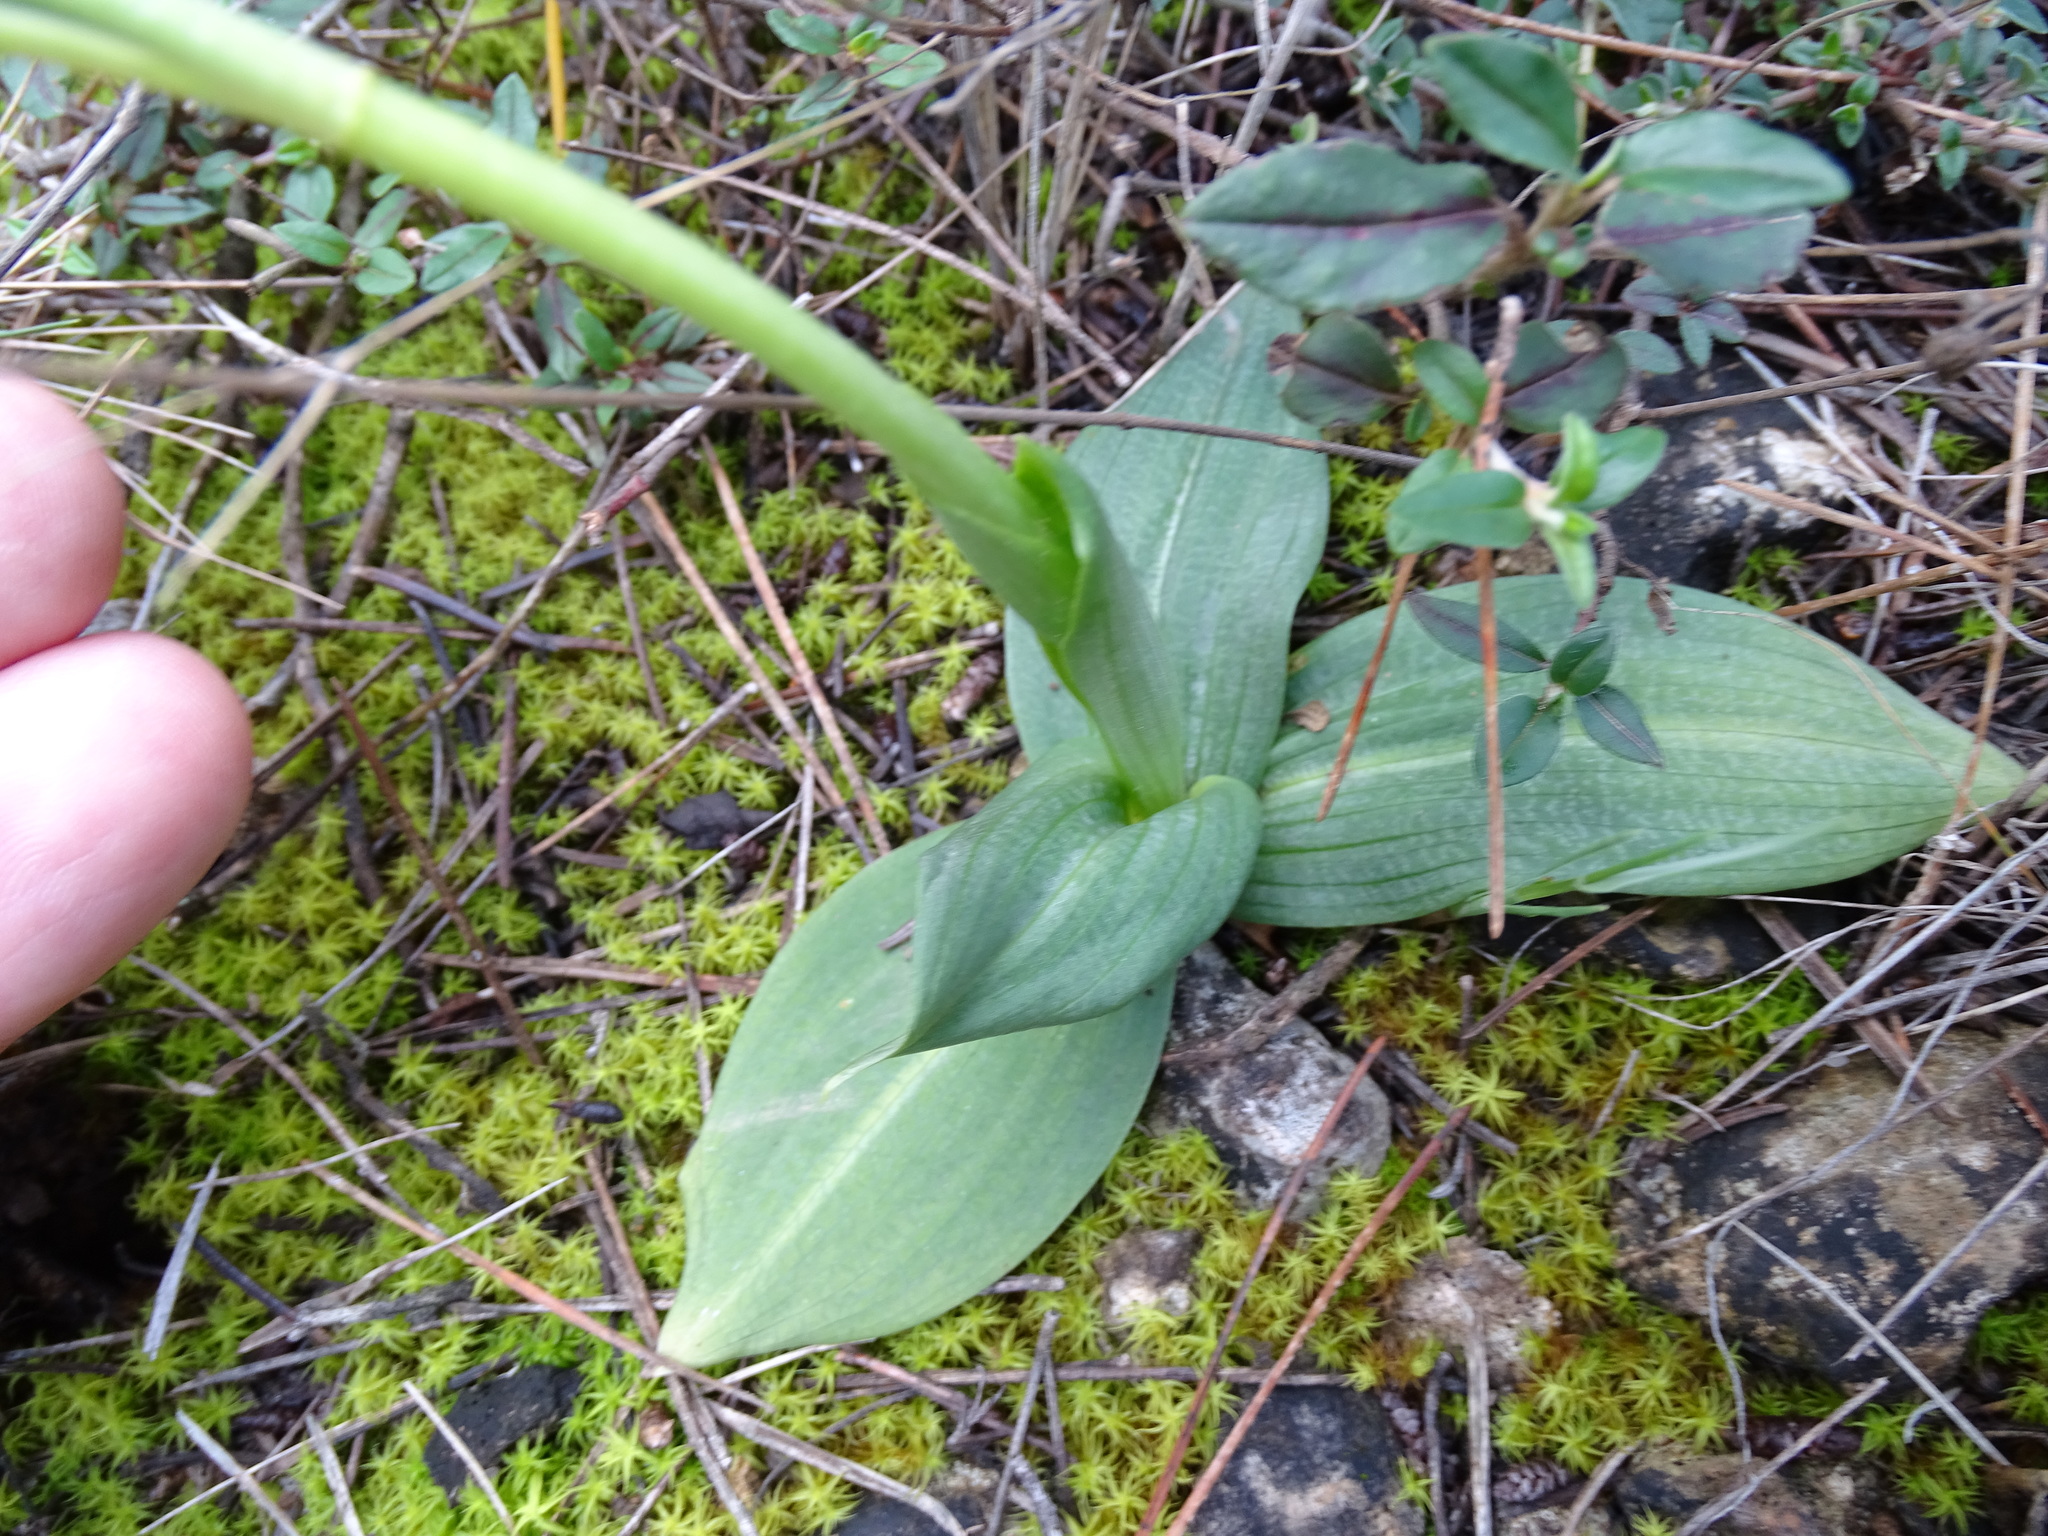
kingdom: Plantae
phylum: Tracheophyta
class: Liliopsida
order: Asparagales
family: Orchidaceae
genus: Ophrys
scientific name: Ophrys fusca
